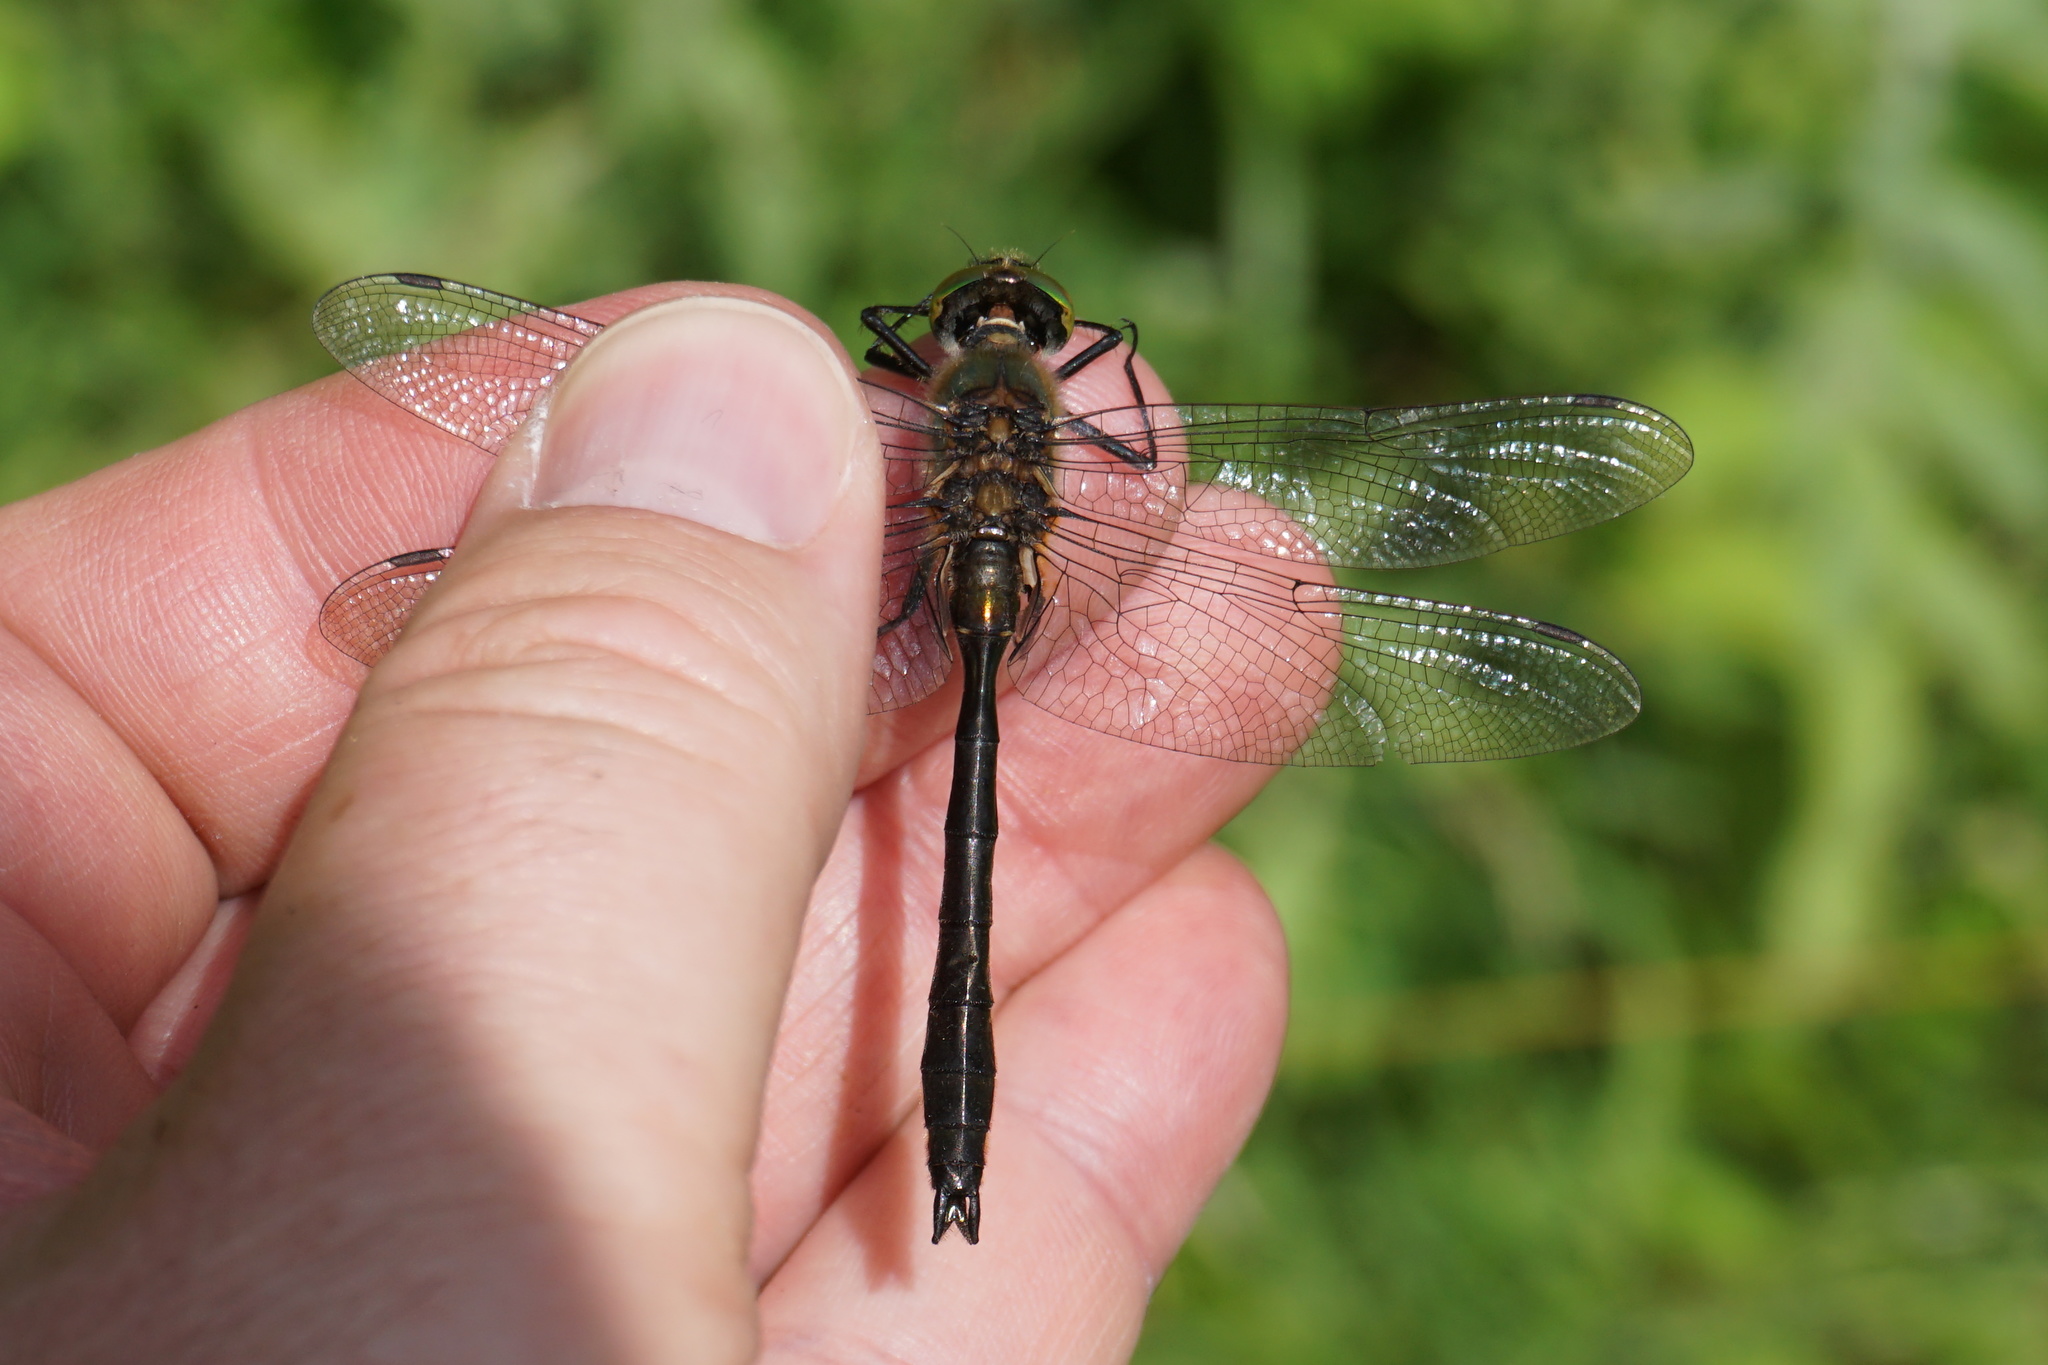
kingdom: Animalia
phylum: Arthropoda
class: Insecta
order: Odonata
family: Corduliidae
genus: Cordulia
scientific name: Cordulia aenea
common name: Downy emerald
